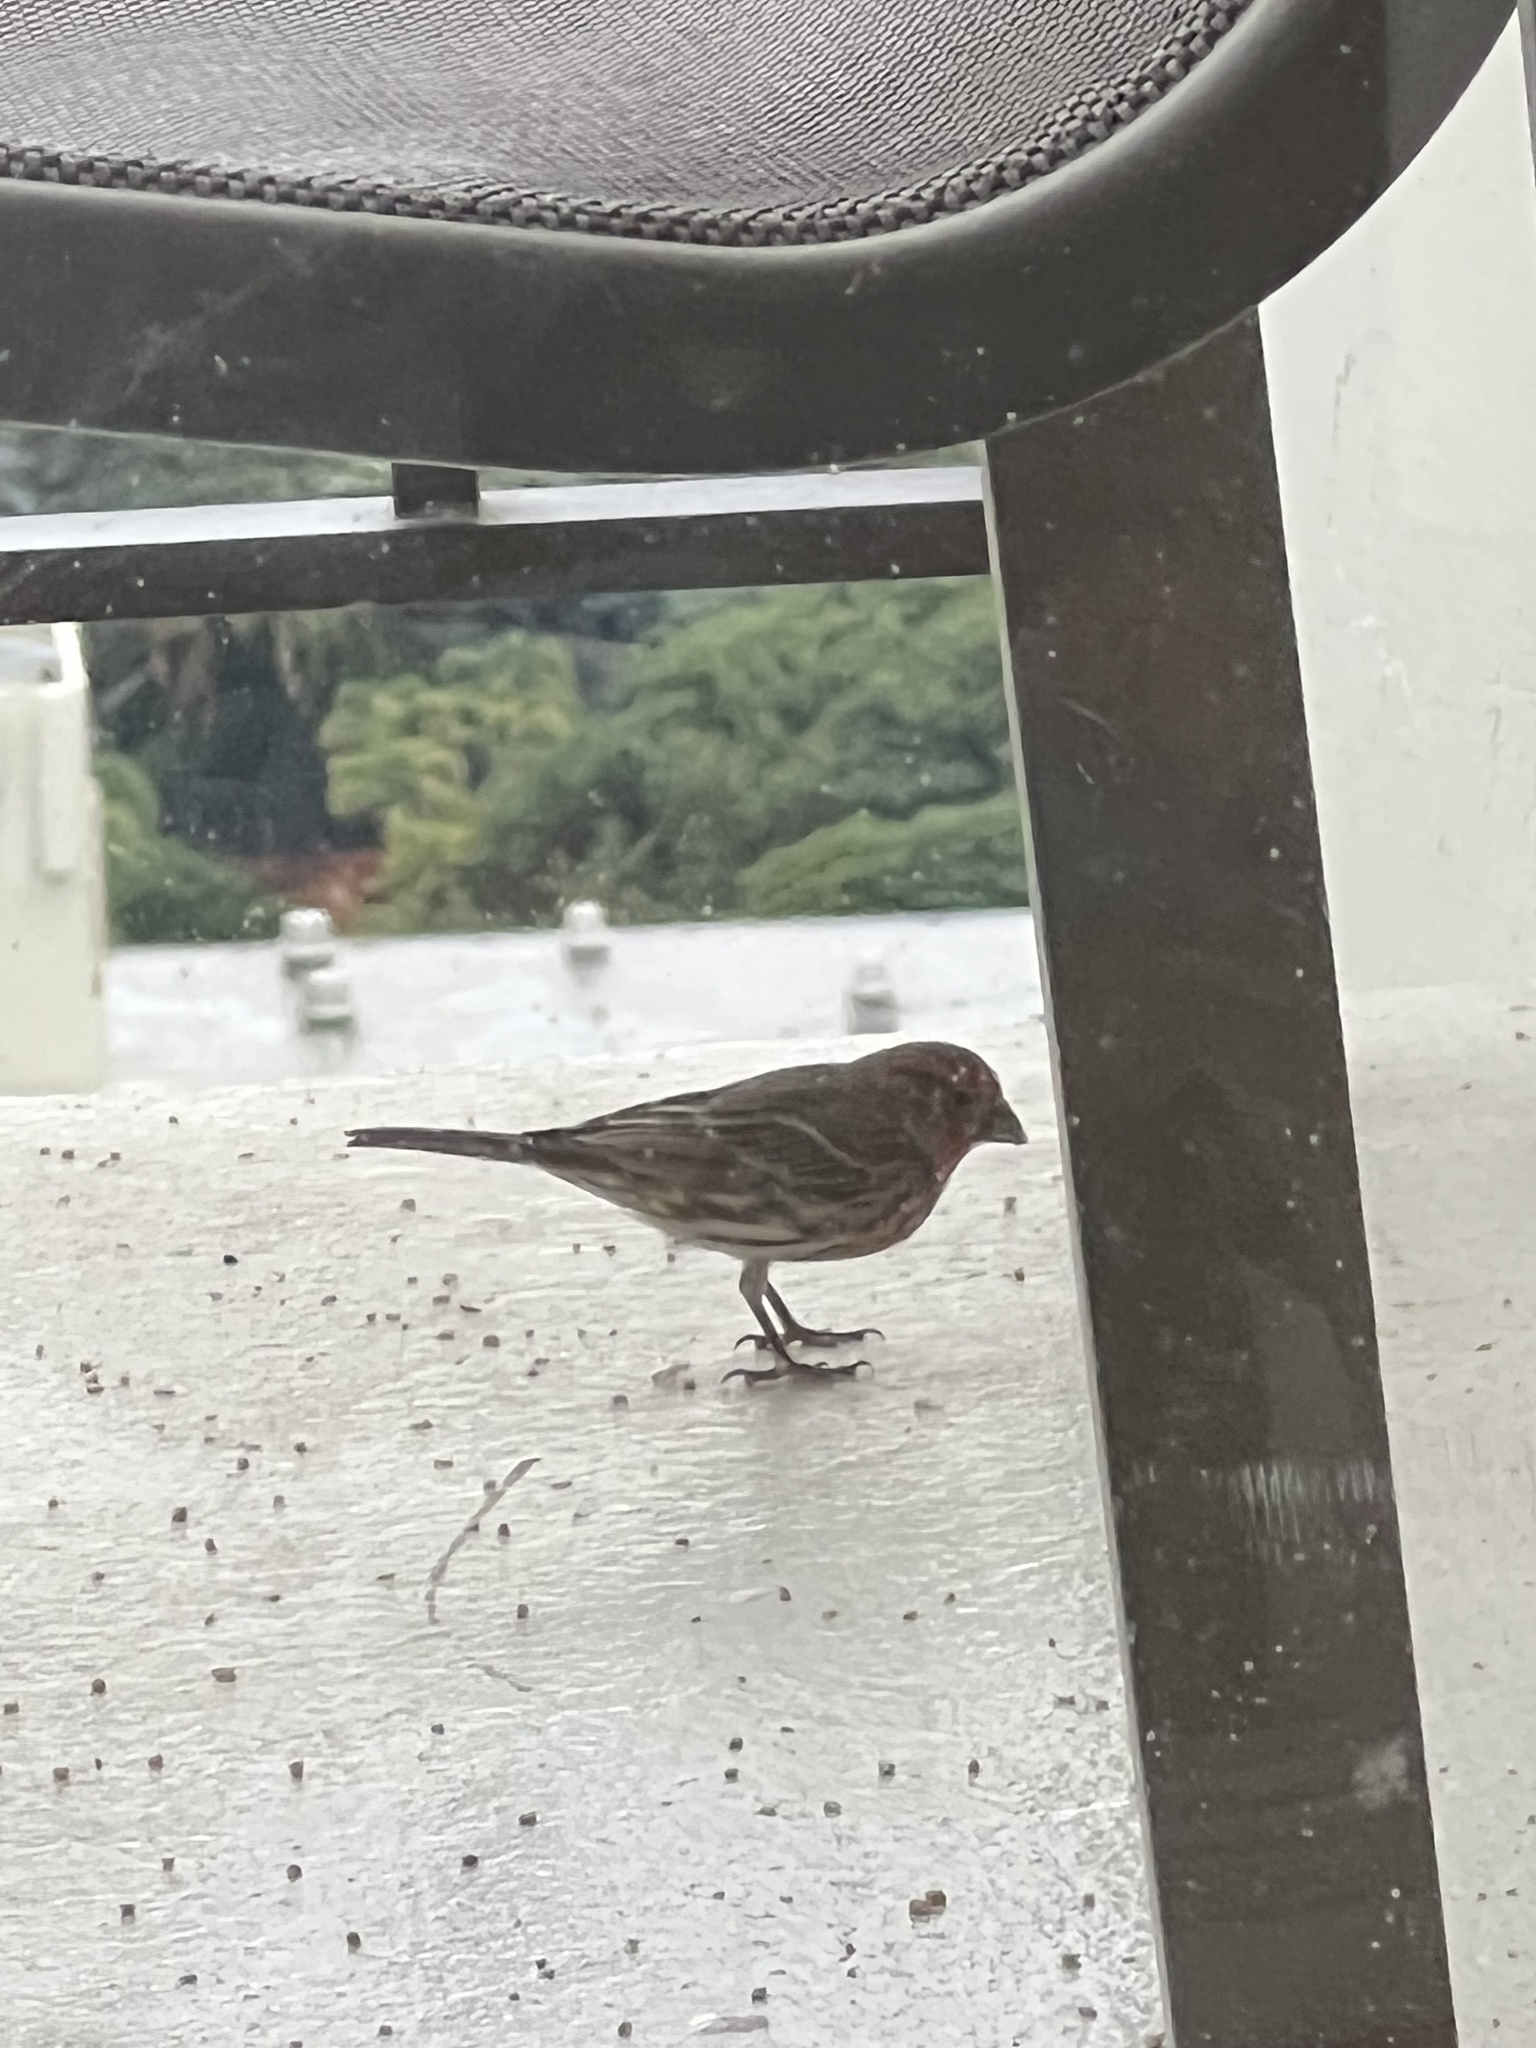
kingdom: Animalia
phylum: Chordata
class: Aves
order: Passeriformes
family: Fringillidae
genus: Haemorhous
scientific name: Haemorhous mexicanus
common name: House finch
